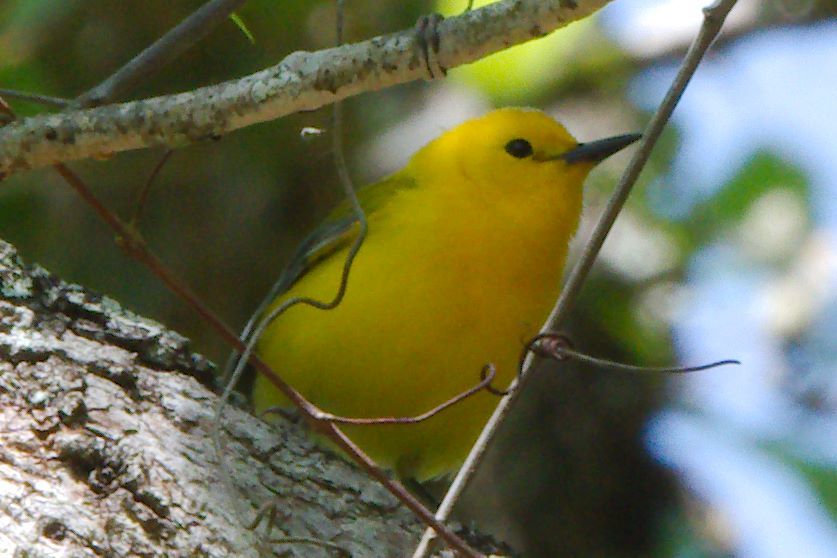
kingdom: Animalia
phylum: Chordata
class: Aves
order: Passeriformes
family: Parulidae
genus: Protonotaria
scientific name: Protonotaria citrea
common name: Prothonotary warbler
